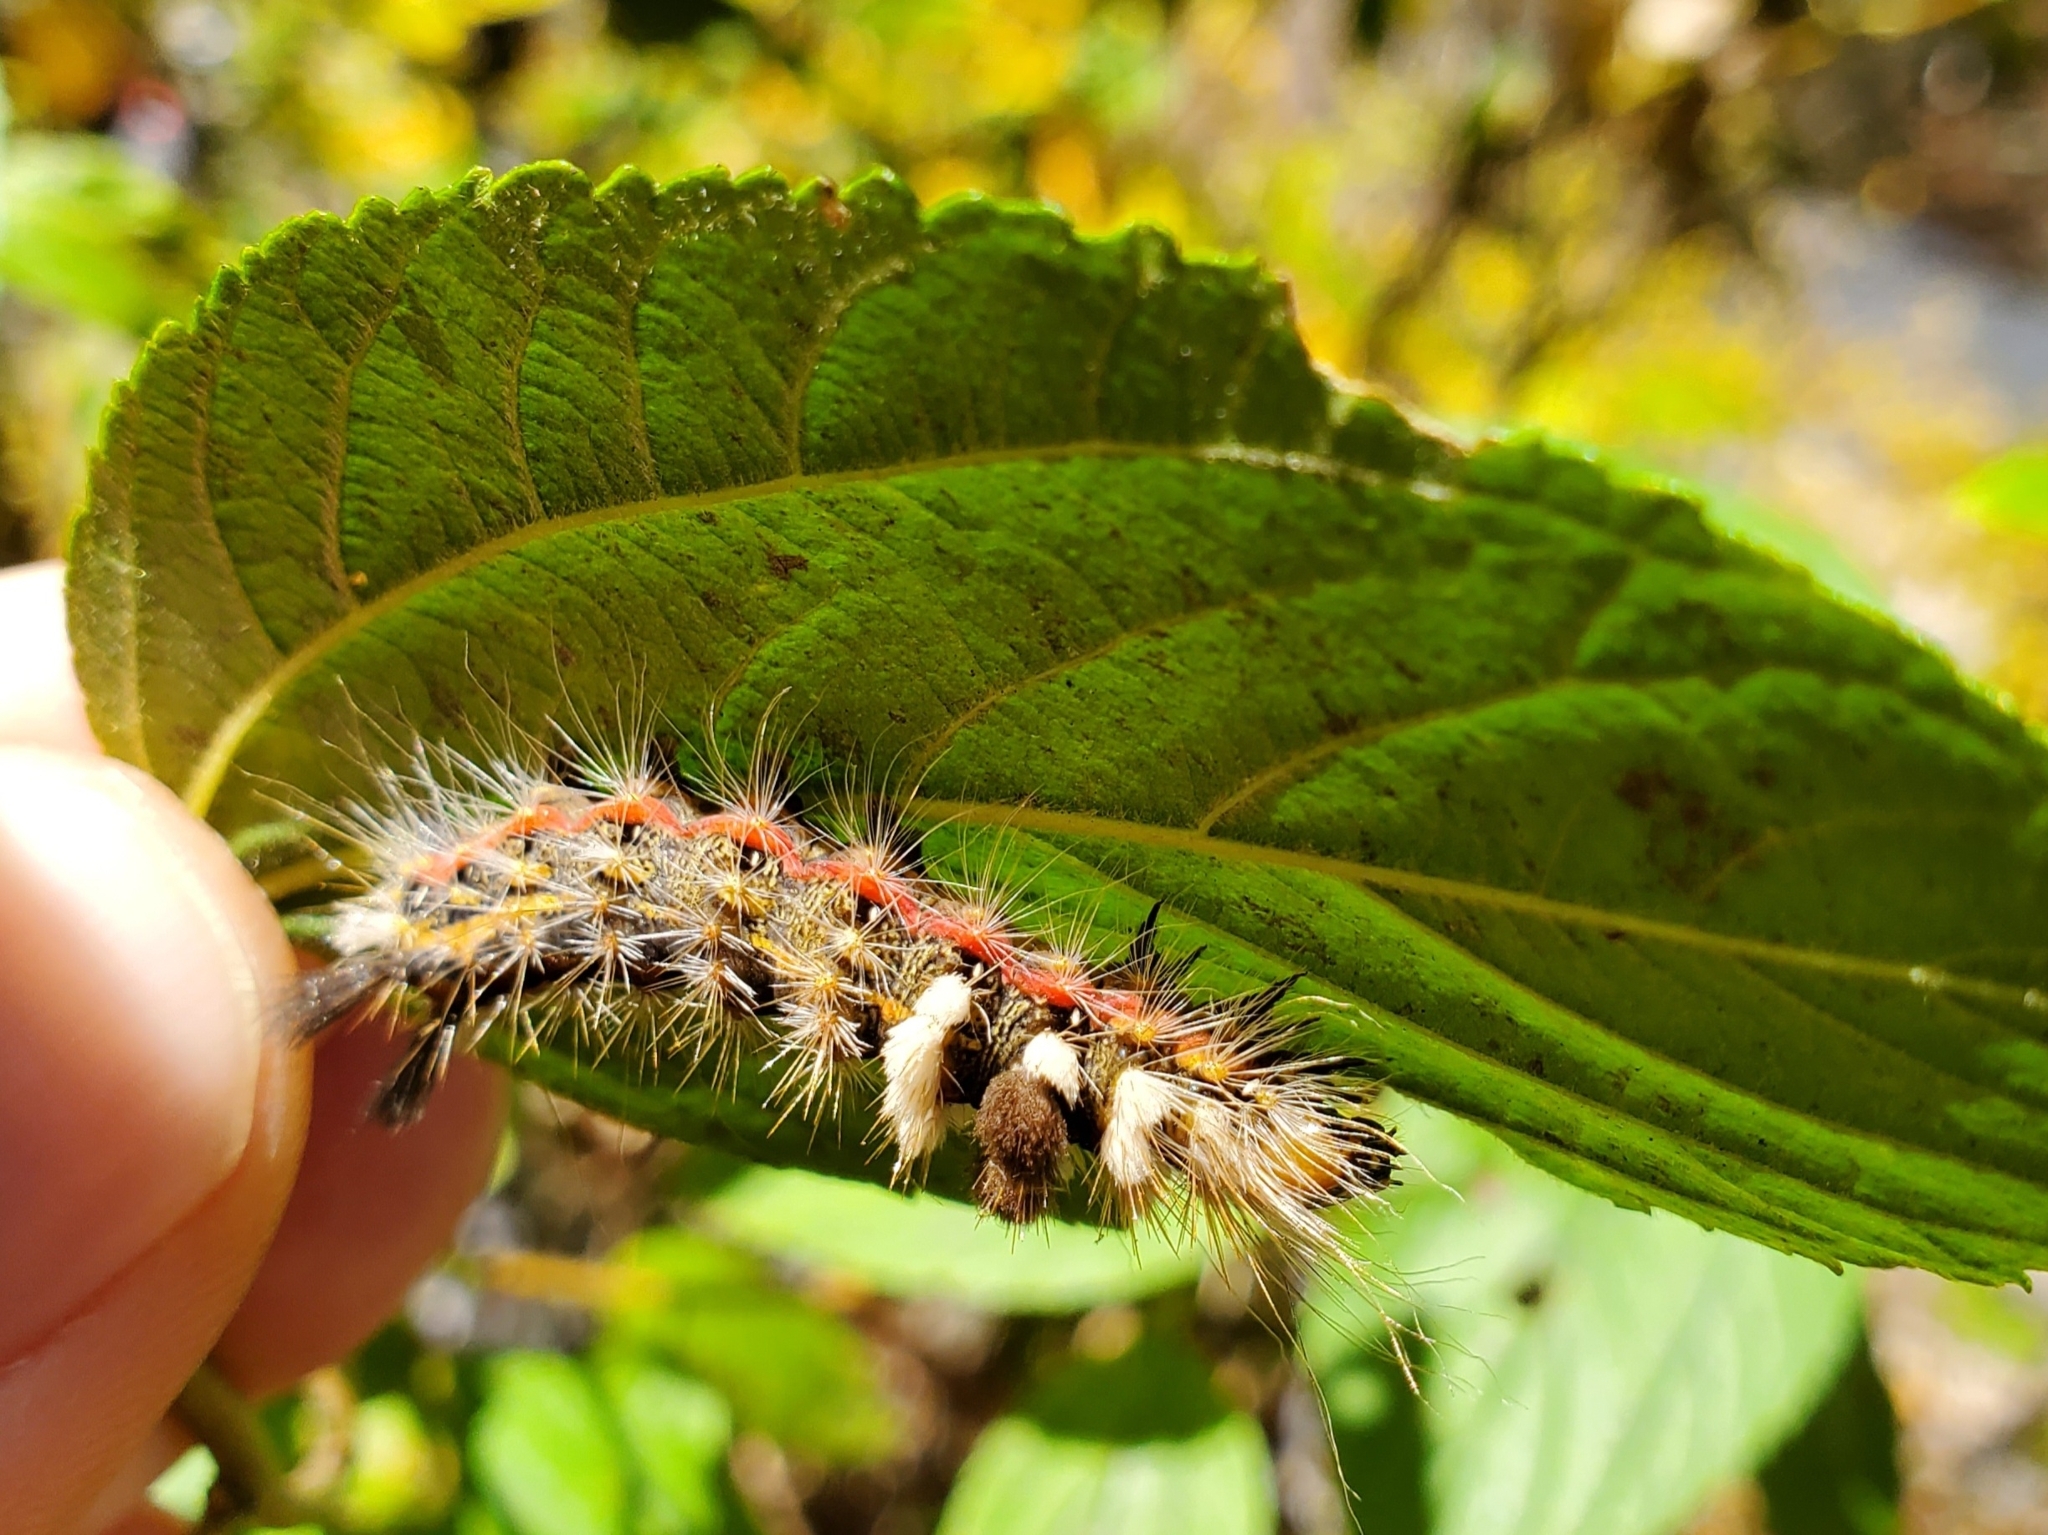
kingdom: Animalia
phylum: Arthropoda
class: Insecta
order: Lepidoptera
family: Noctuidae
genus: Acronicta
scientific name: Acronicta impleta
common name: Powdered dagger
